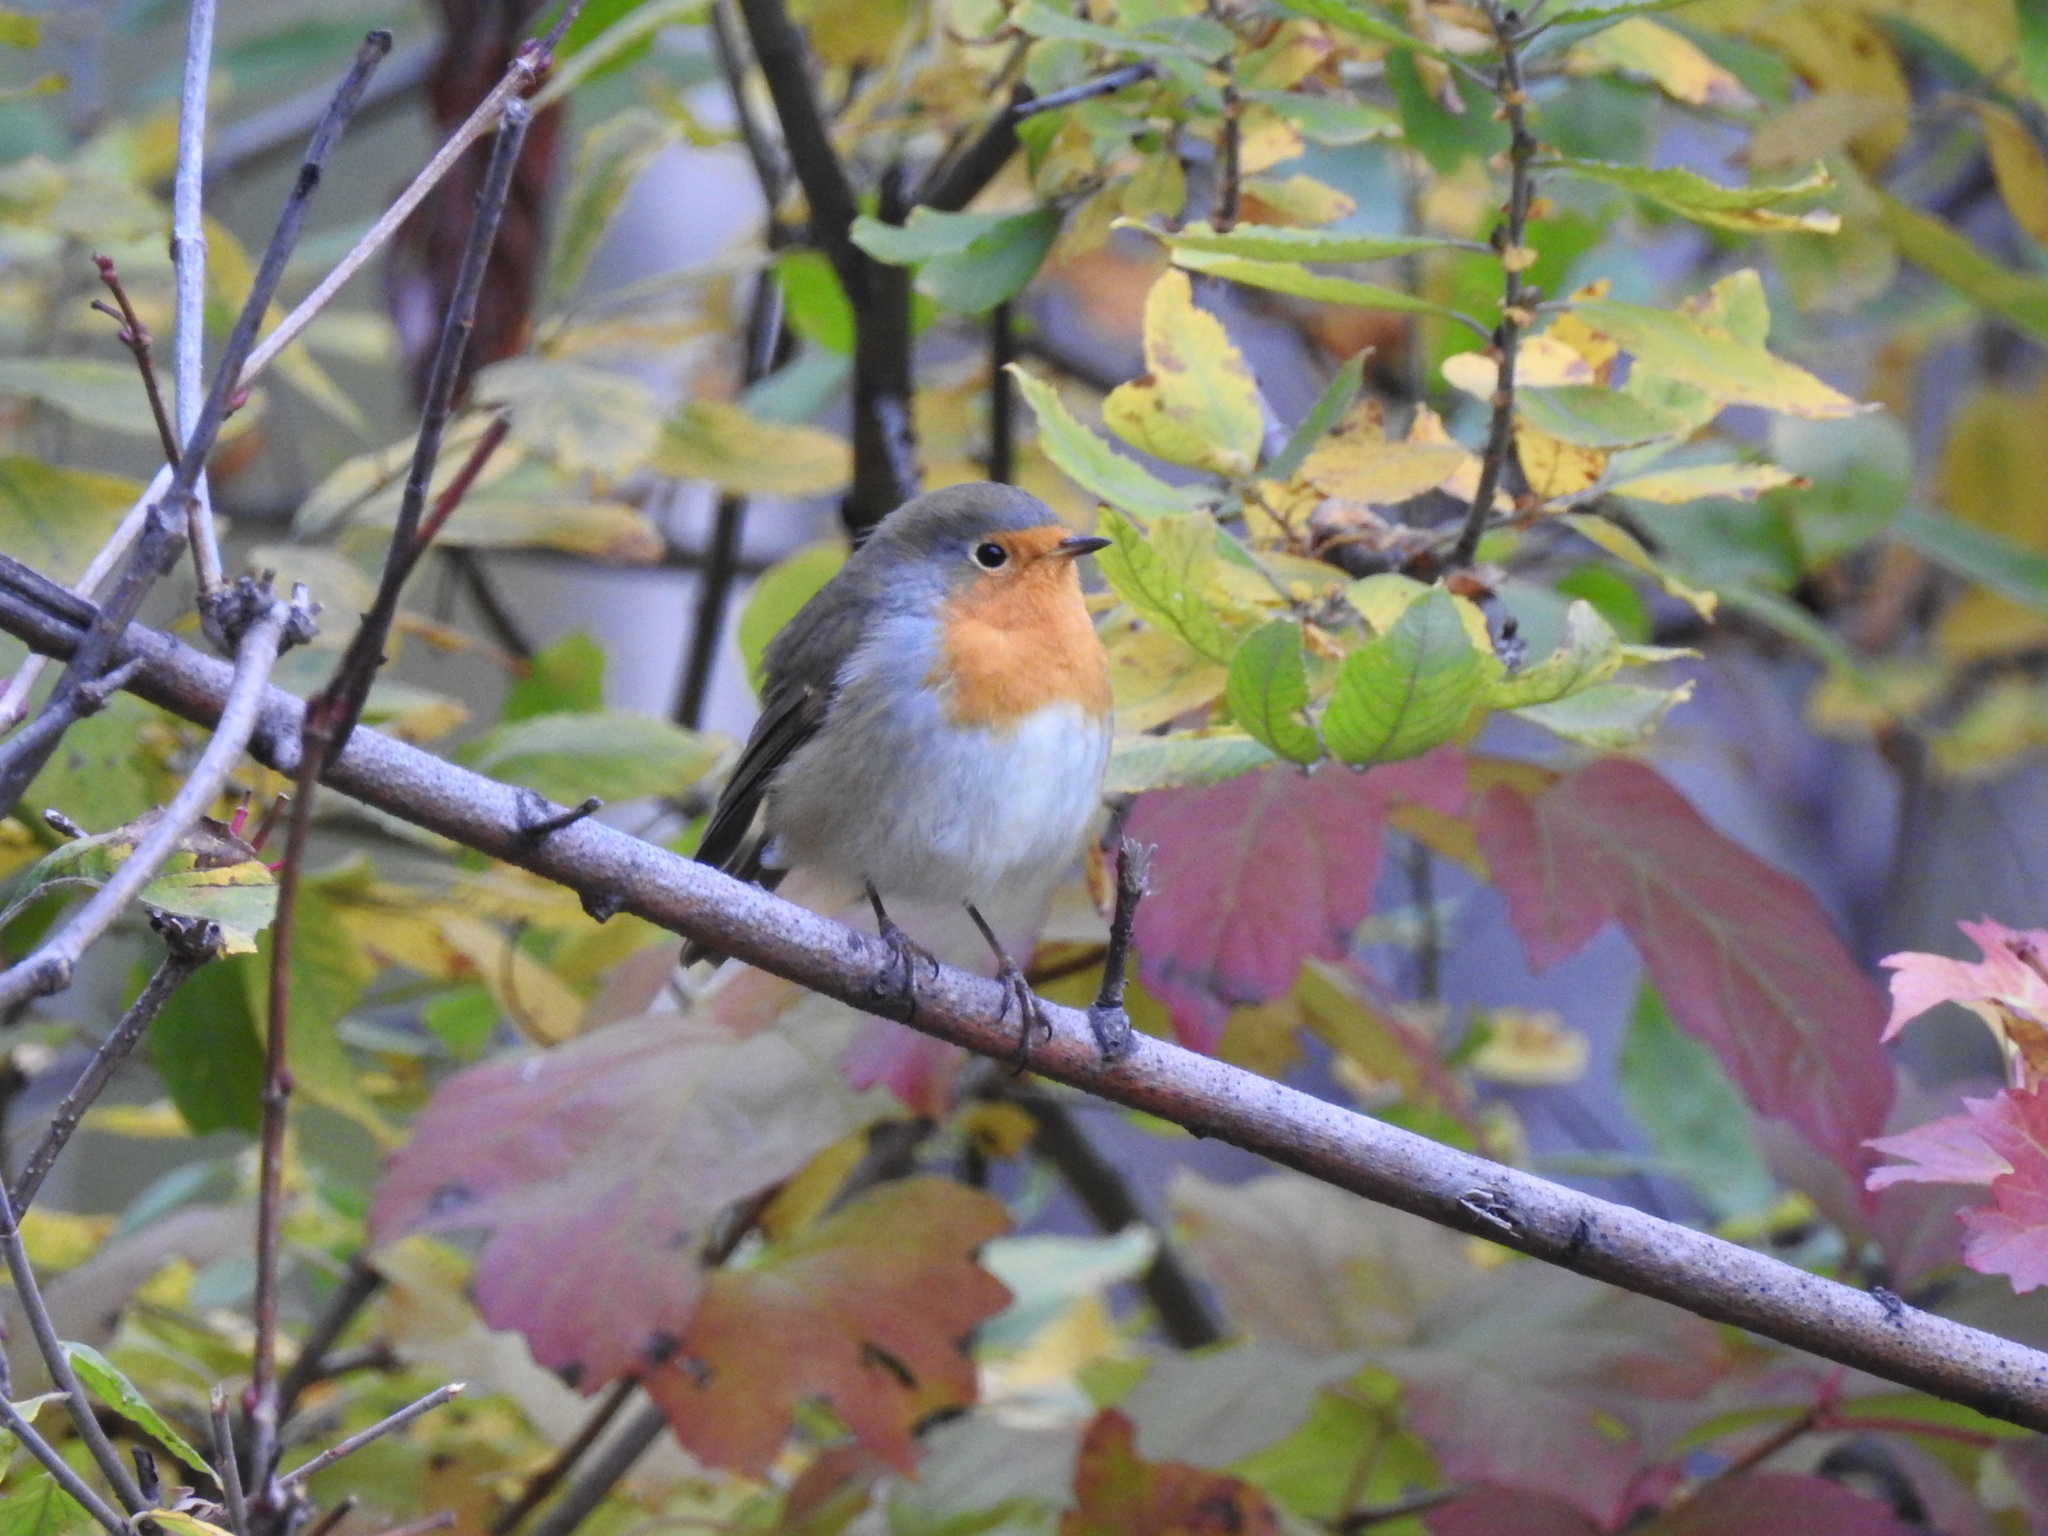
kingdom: Animalia
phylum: Chordata
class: Aves
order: Passeriformes
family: Muscicapidae
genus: Erithacus
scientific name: Erithacus rubecula
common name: European robin
